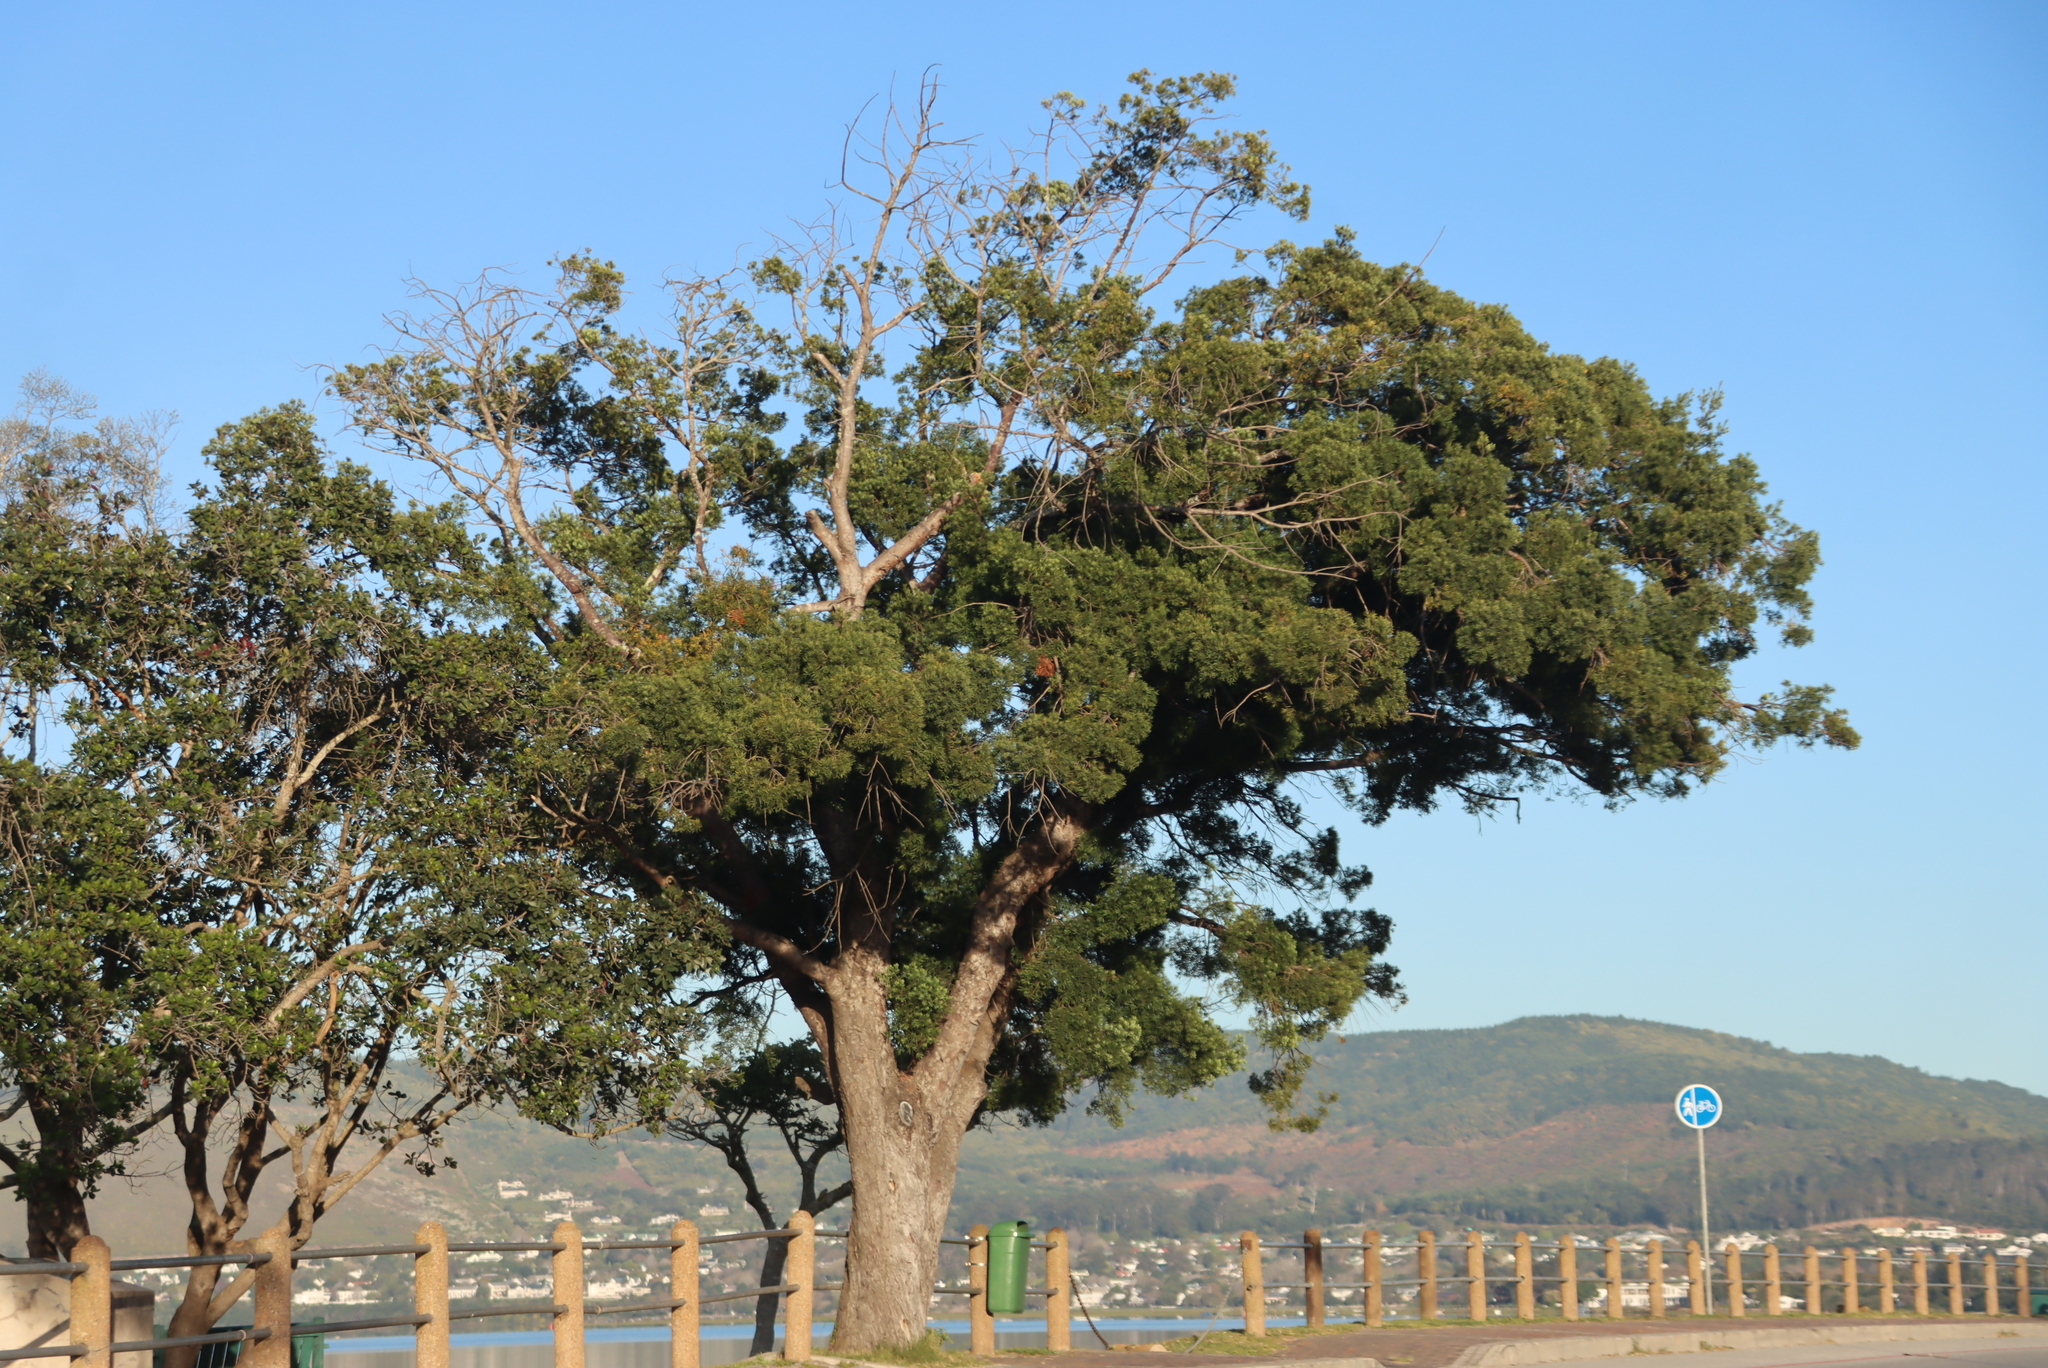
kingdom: Plantae
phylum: Tracheophyta
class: Pinopsida
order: Pinales
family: Podocarpaceae
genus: Afrocarpus
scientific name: Afrocarpus falcatus
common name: Bastard yellowwood
